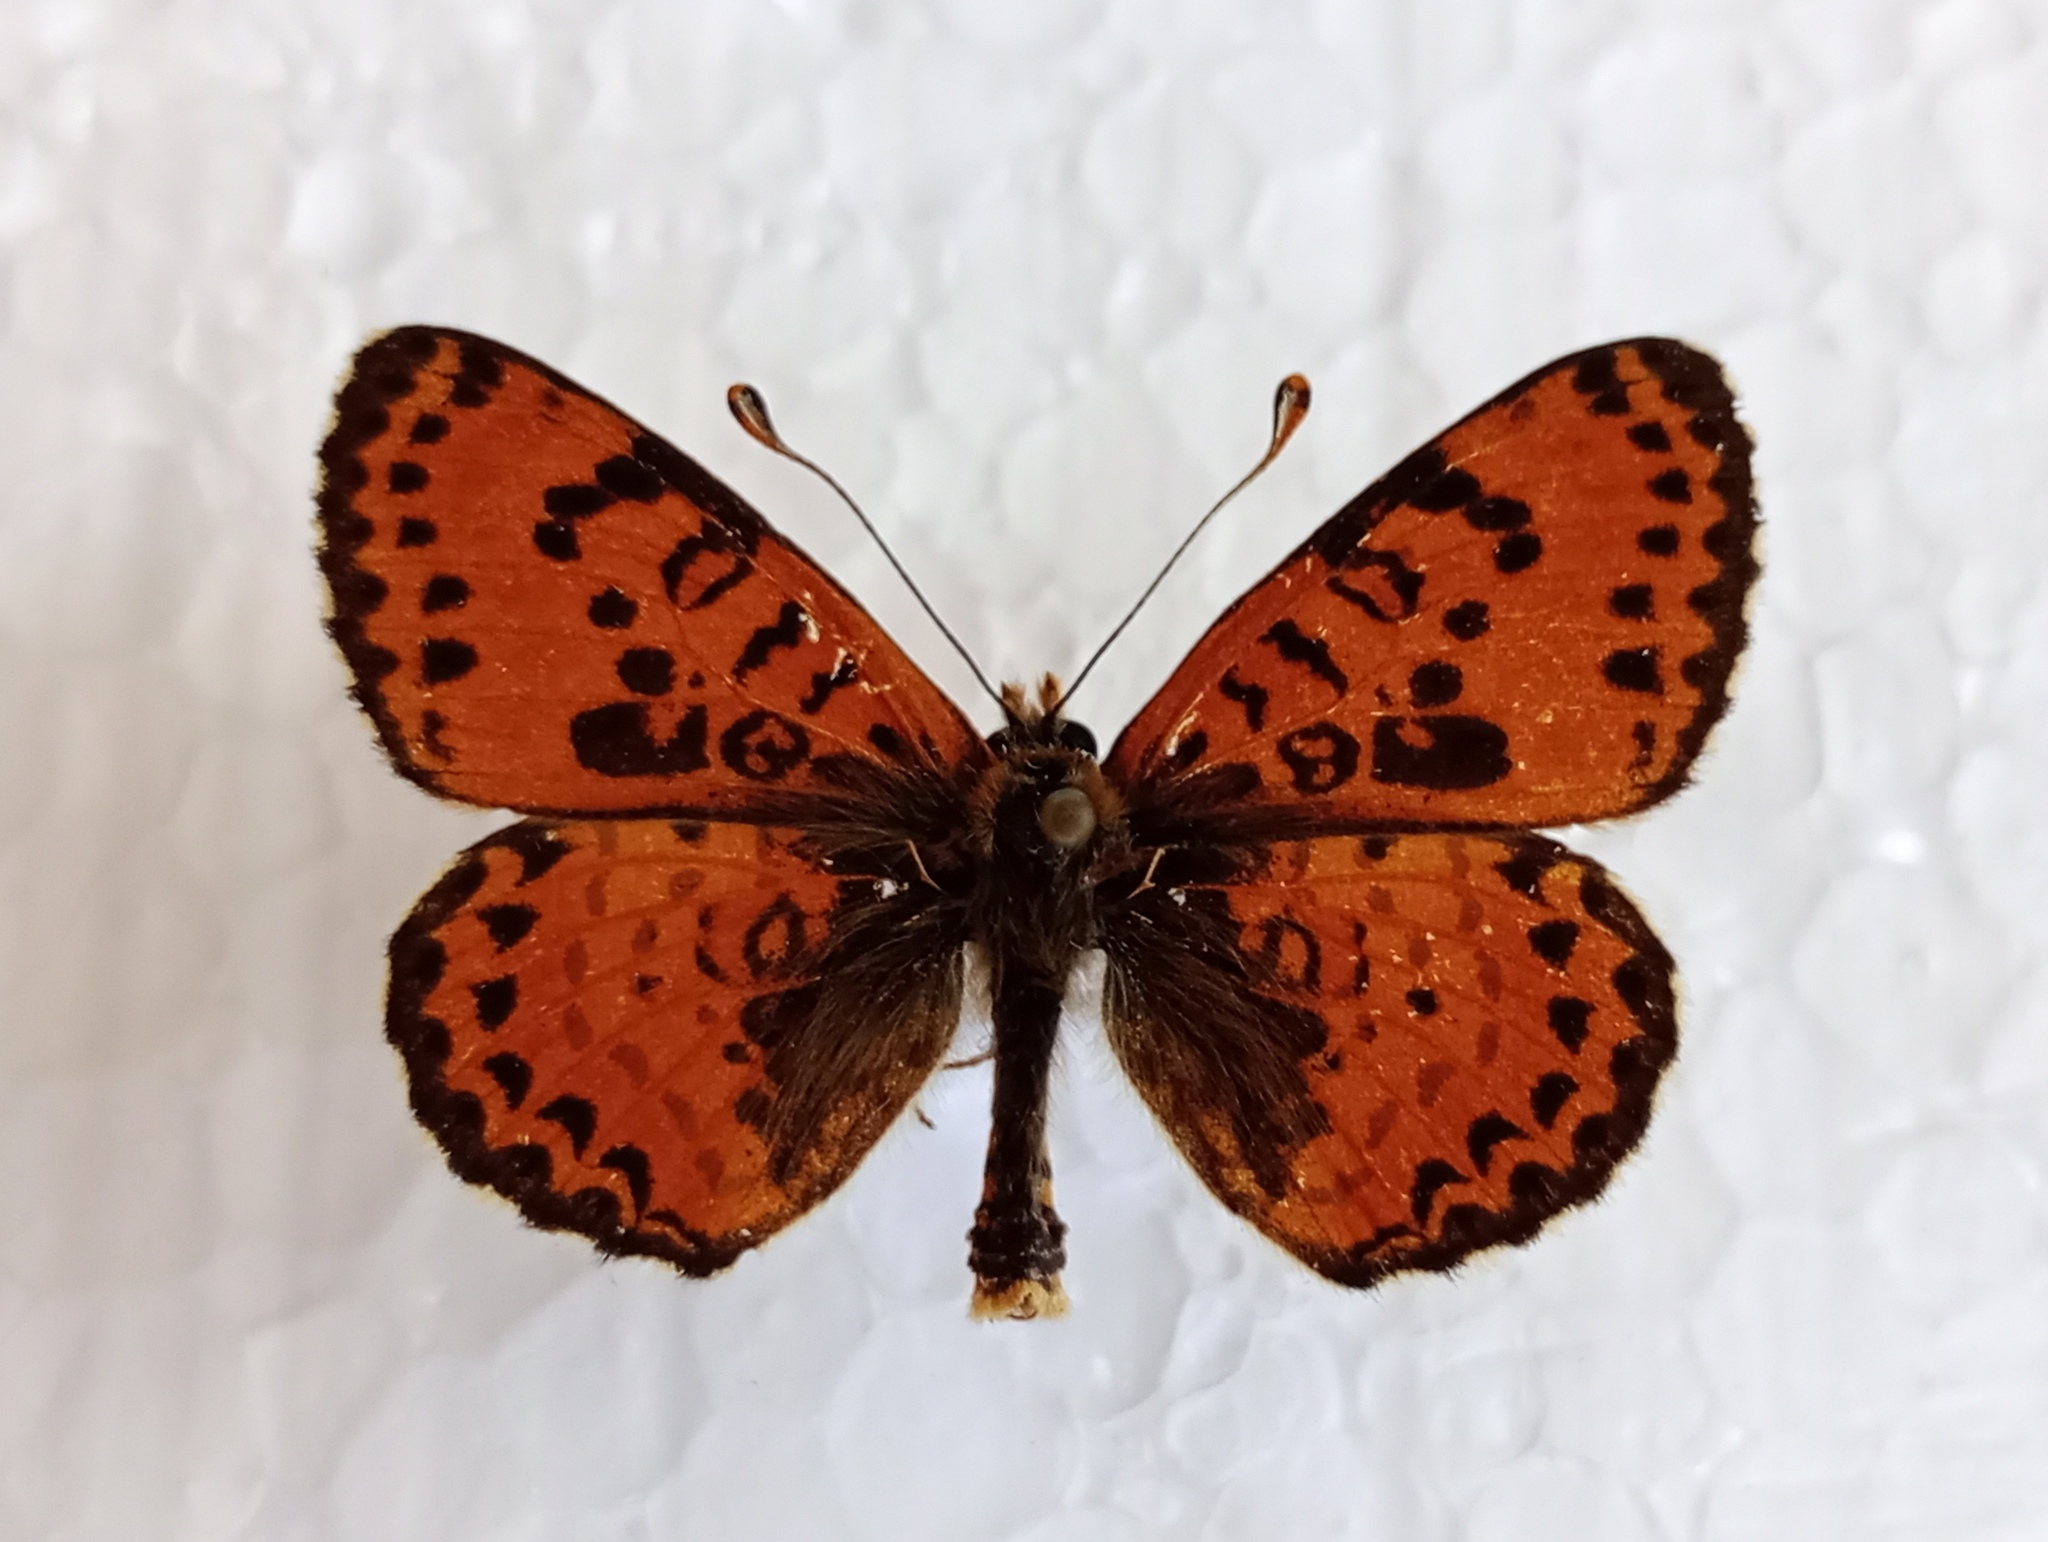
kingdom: Animalia
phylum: Arthropoda
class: Insecta
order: Lepidoptera
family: Nymphalidae
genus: Melitaea
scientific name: Melitaea didyma
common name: Spotted fritillary
